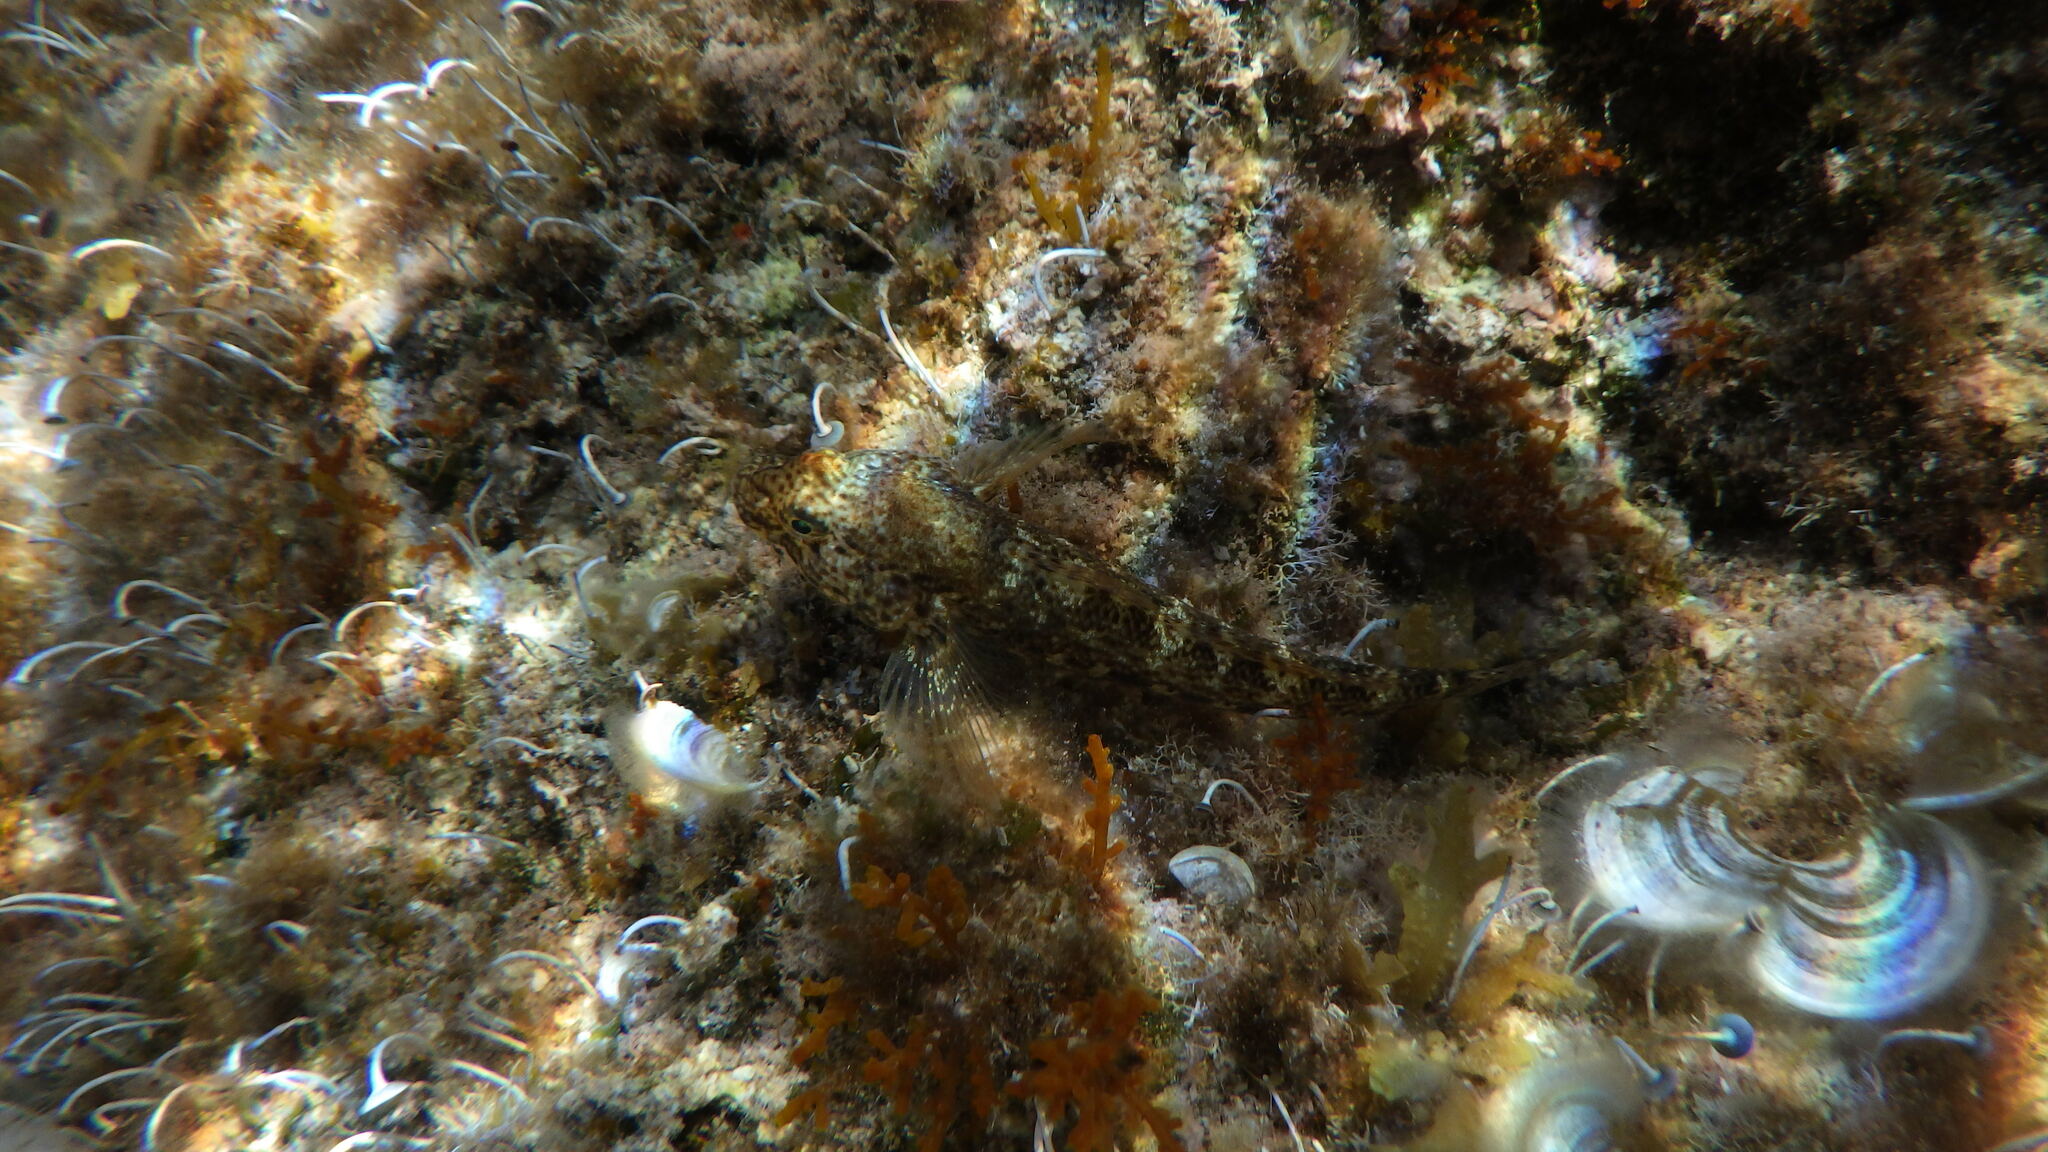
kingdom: Animalia
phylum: Chordata
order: Perciformes
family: Gobiidae
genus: Gobius
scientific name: Gobius incognitus
